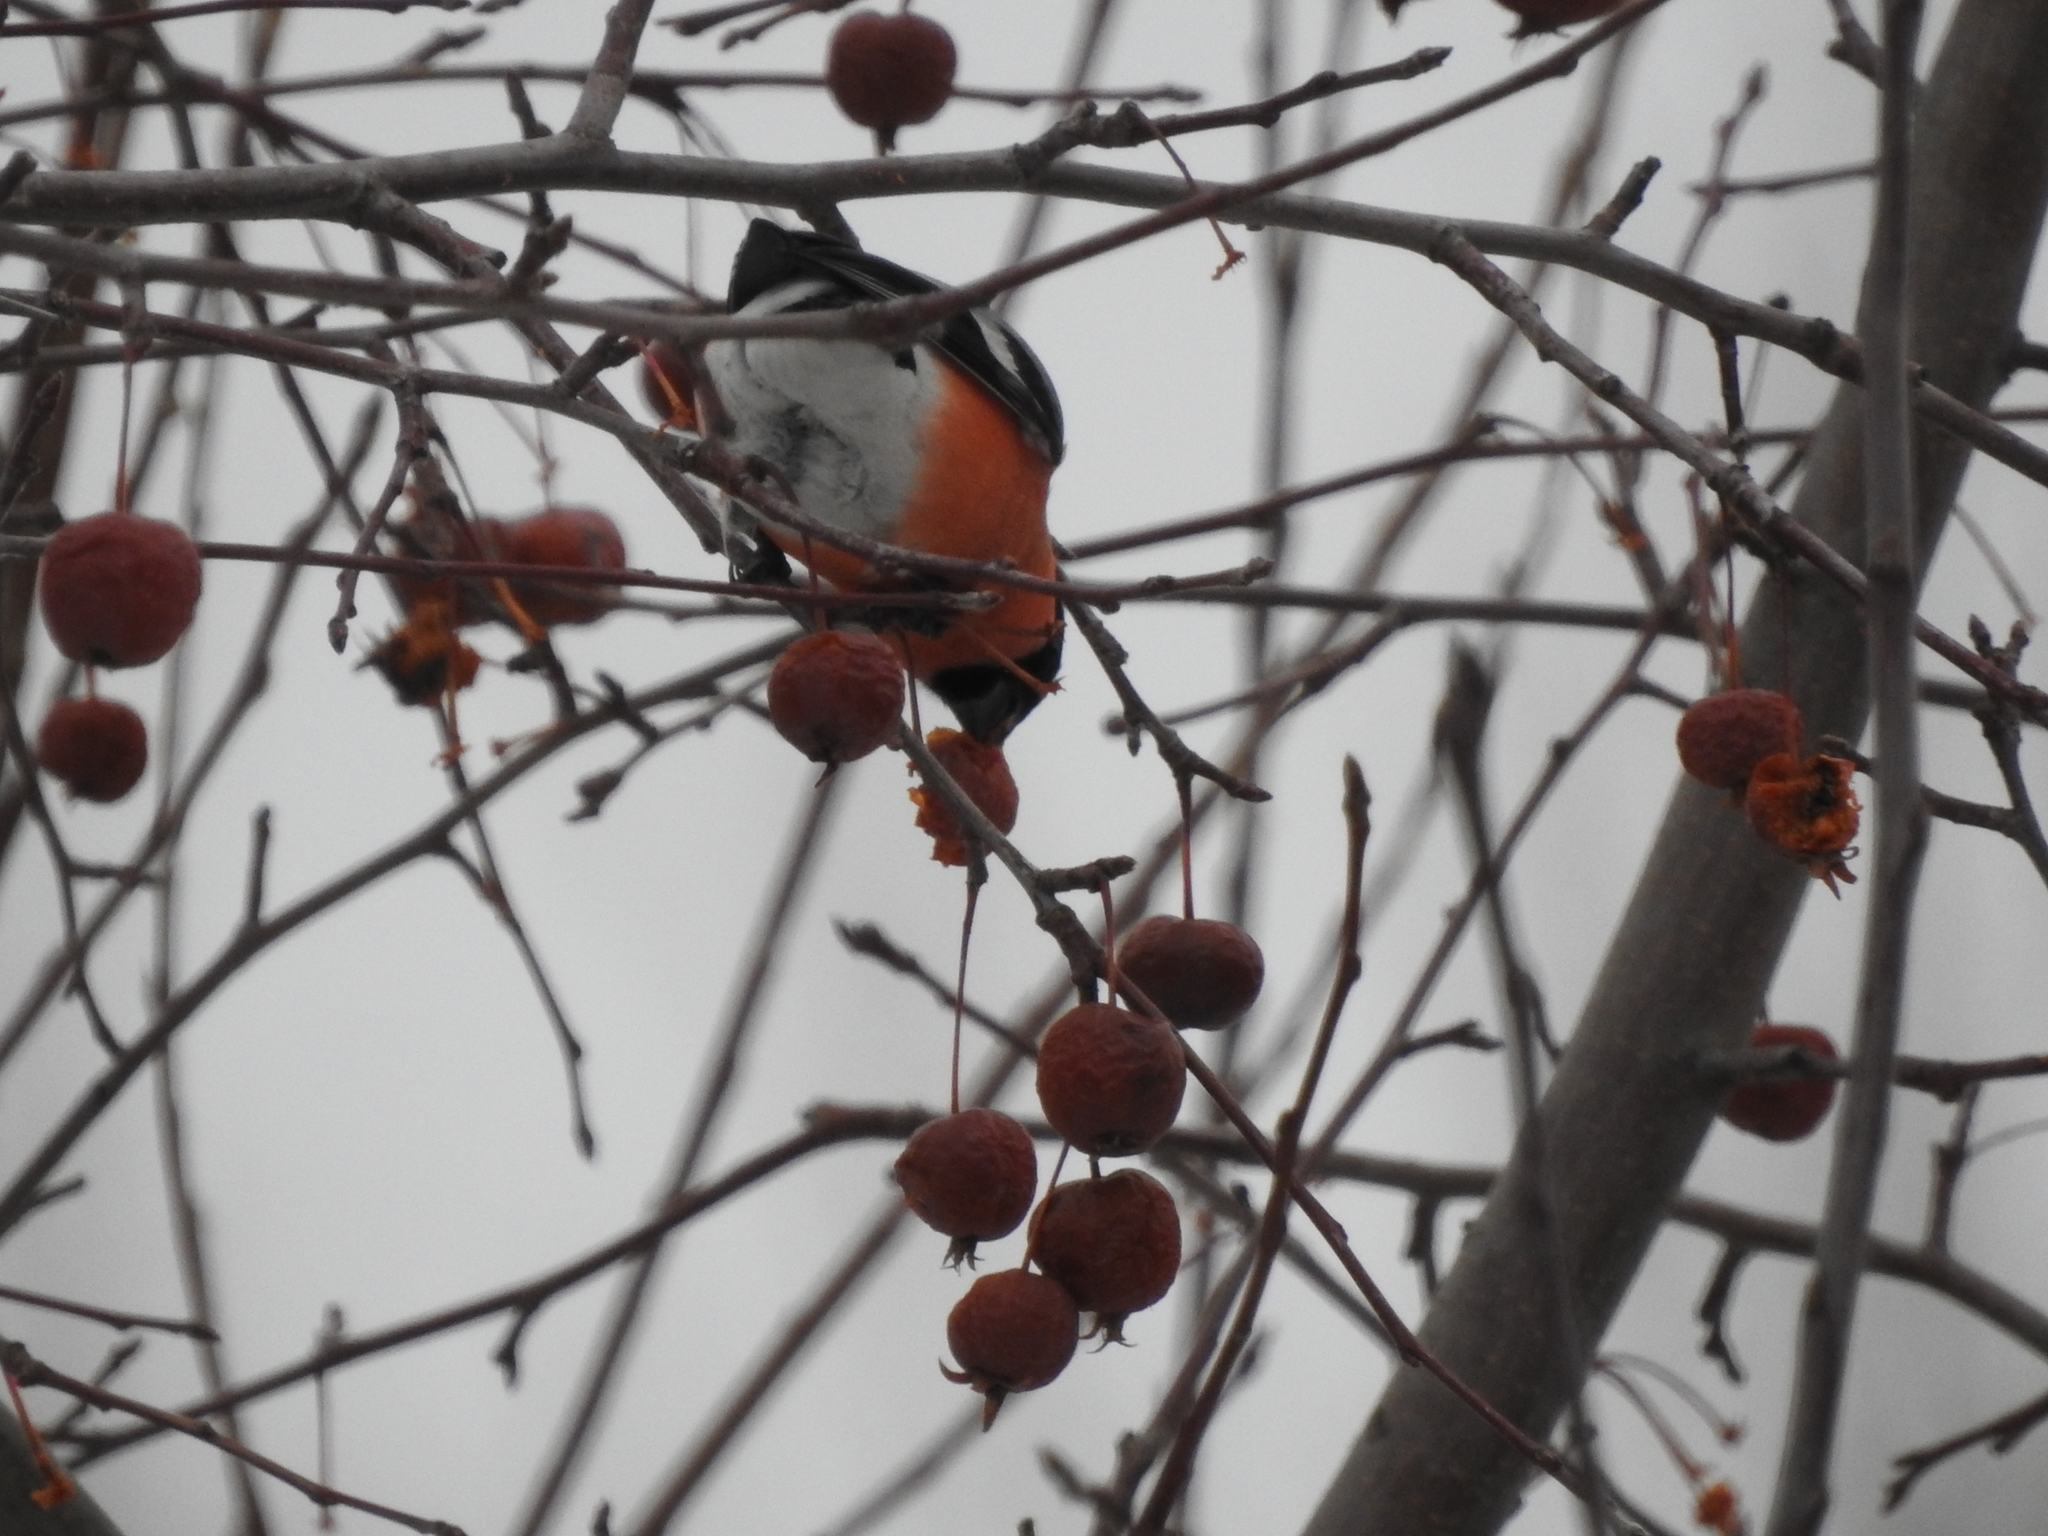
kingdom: Animalia
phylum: Chordata
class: Aves
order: Passeriformes
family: Fringillidae
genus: Pyrrhula
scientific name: Pyrrhula pyrrhula
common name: Eurasian bullfinch
